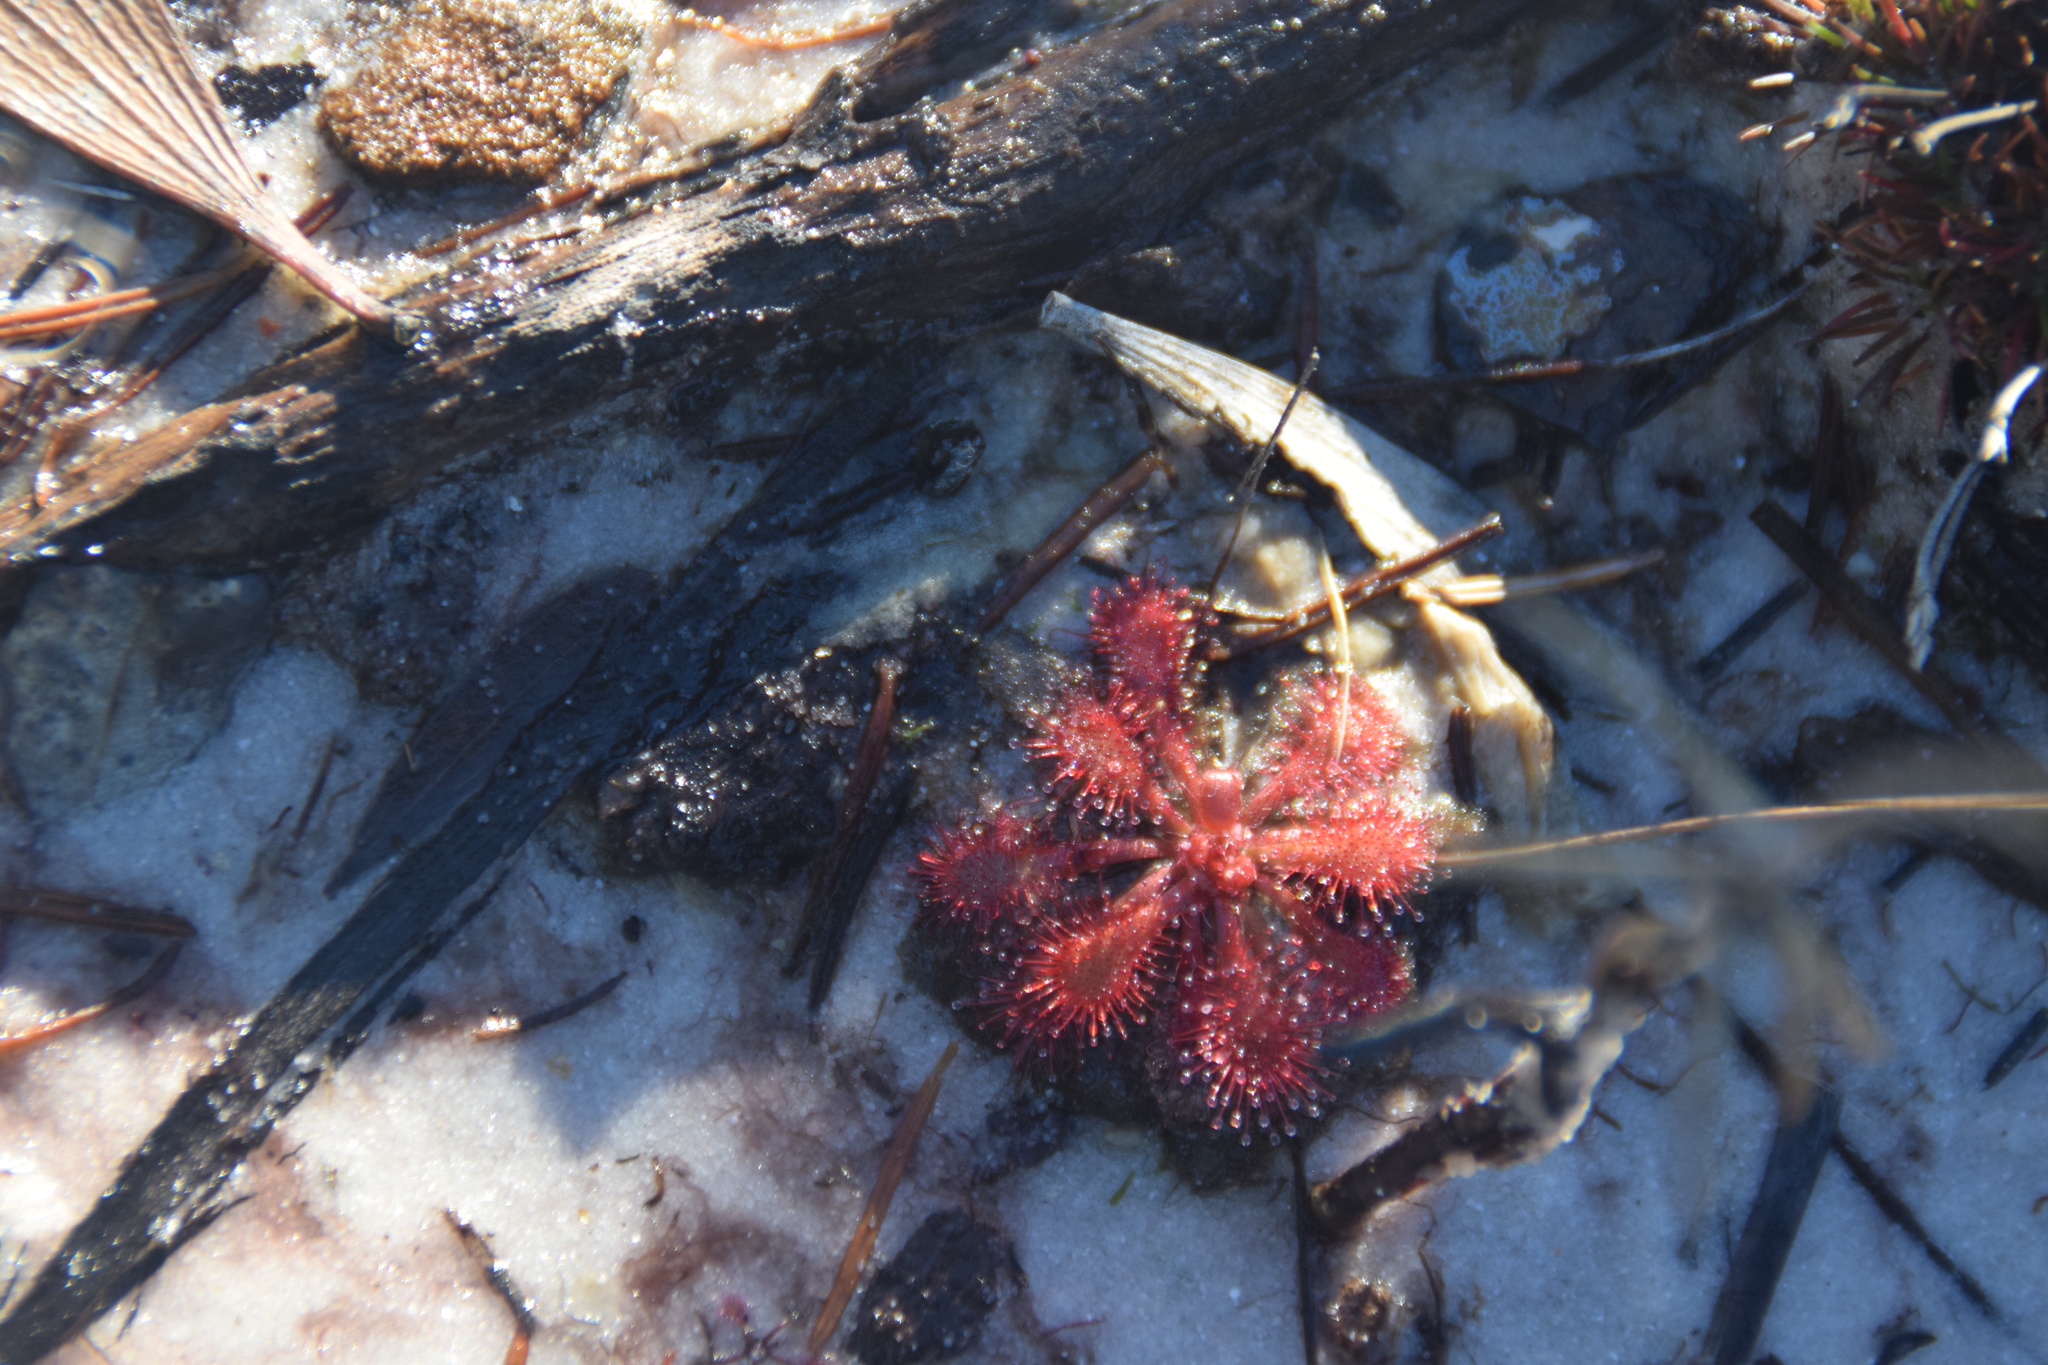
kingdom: Plantae
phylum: Tracheophyta
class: Magnoliopsida
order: Caryophyllales
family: Droseraceae
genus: Drosera
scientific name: Drosera spatulata
